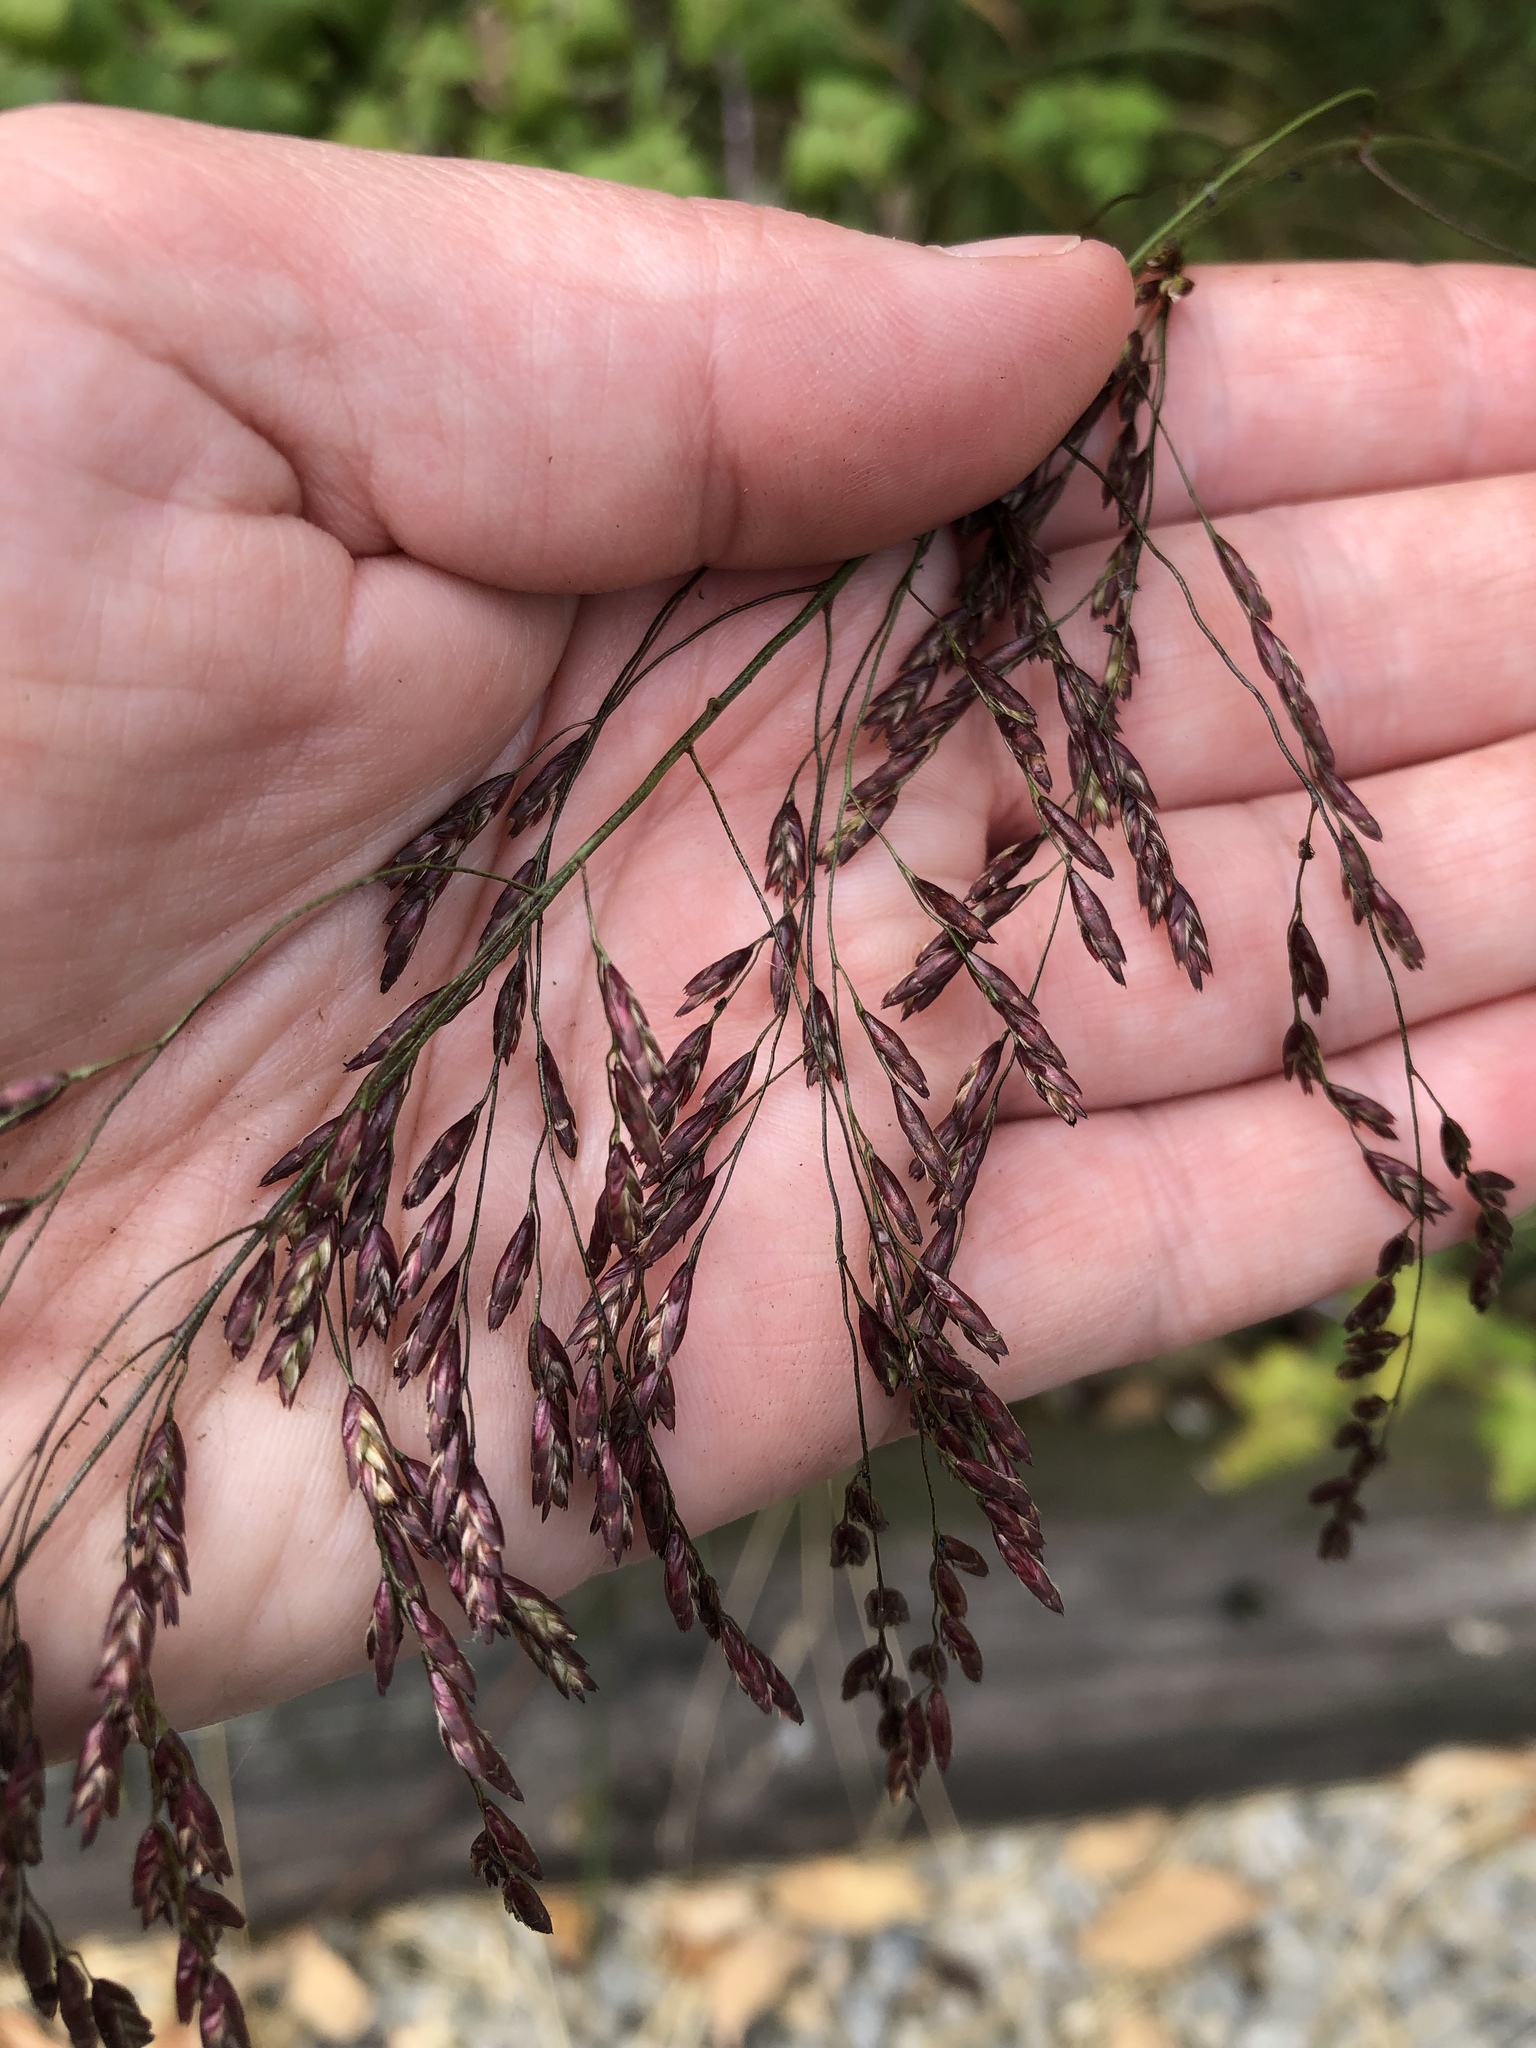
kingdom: Plantae
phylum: Tracheophyta
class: Liliopsida
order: Poales
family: Poaceae
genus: Tridens
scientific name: Tridens flavus
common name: Purpletop
